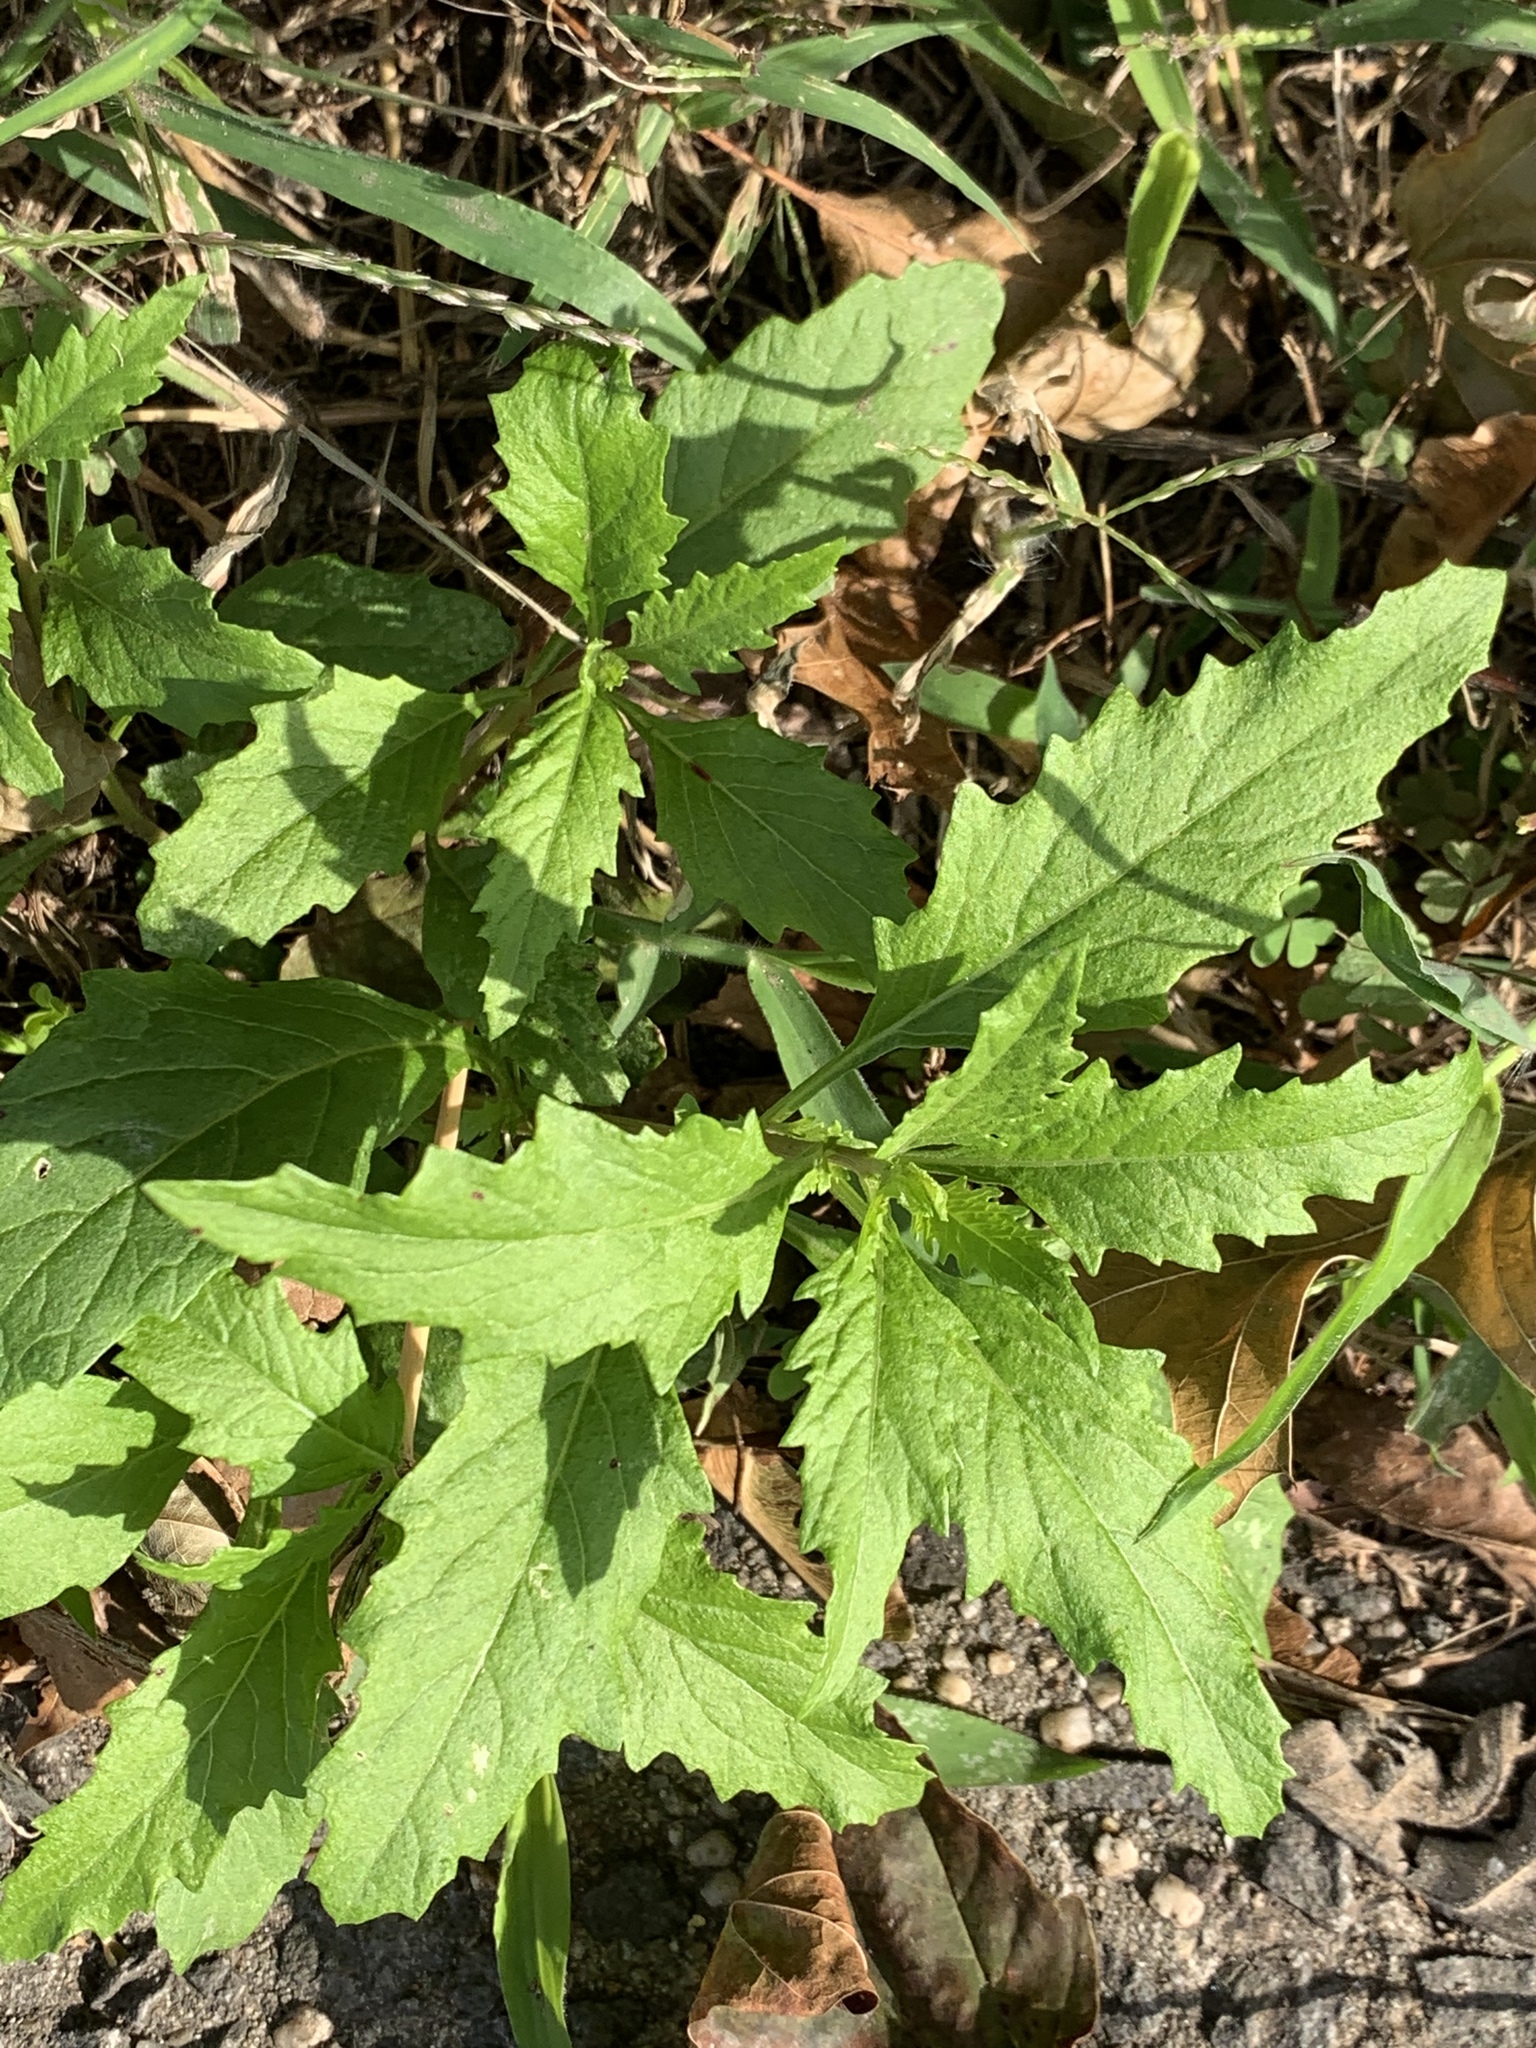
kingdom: Plantae
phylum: Tracheophyta
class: Magnoliopsida
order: Caryophyllales
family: Amaranthaceae
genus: Dysphania
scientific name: Dysphania ambrosioides
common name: Wormseed
